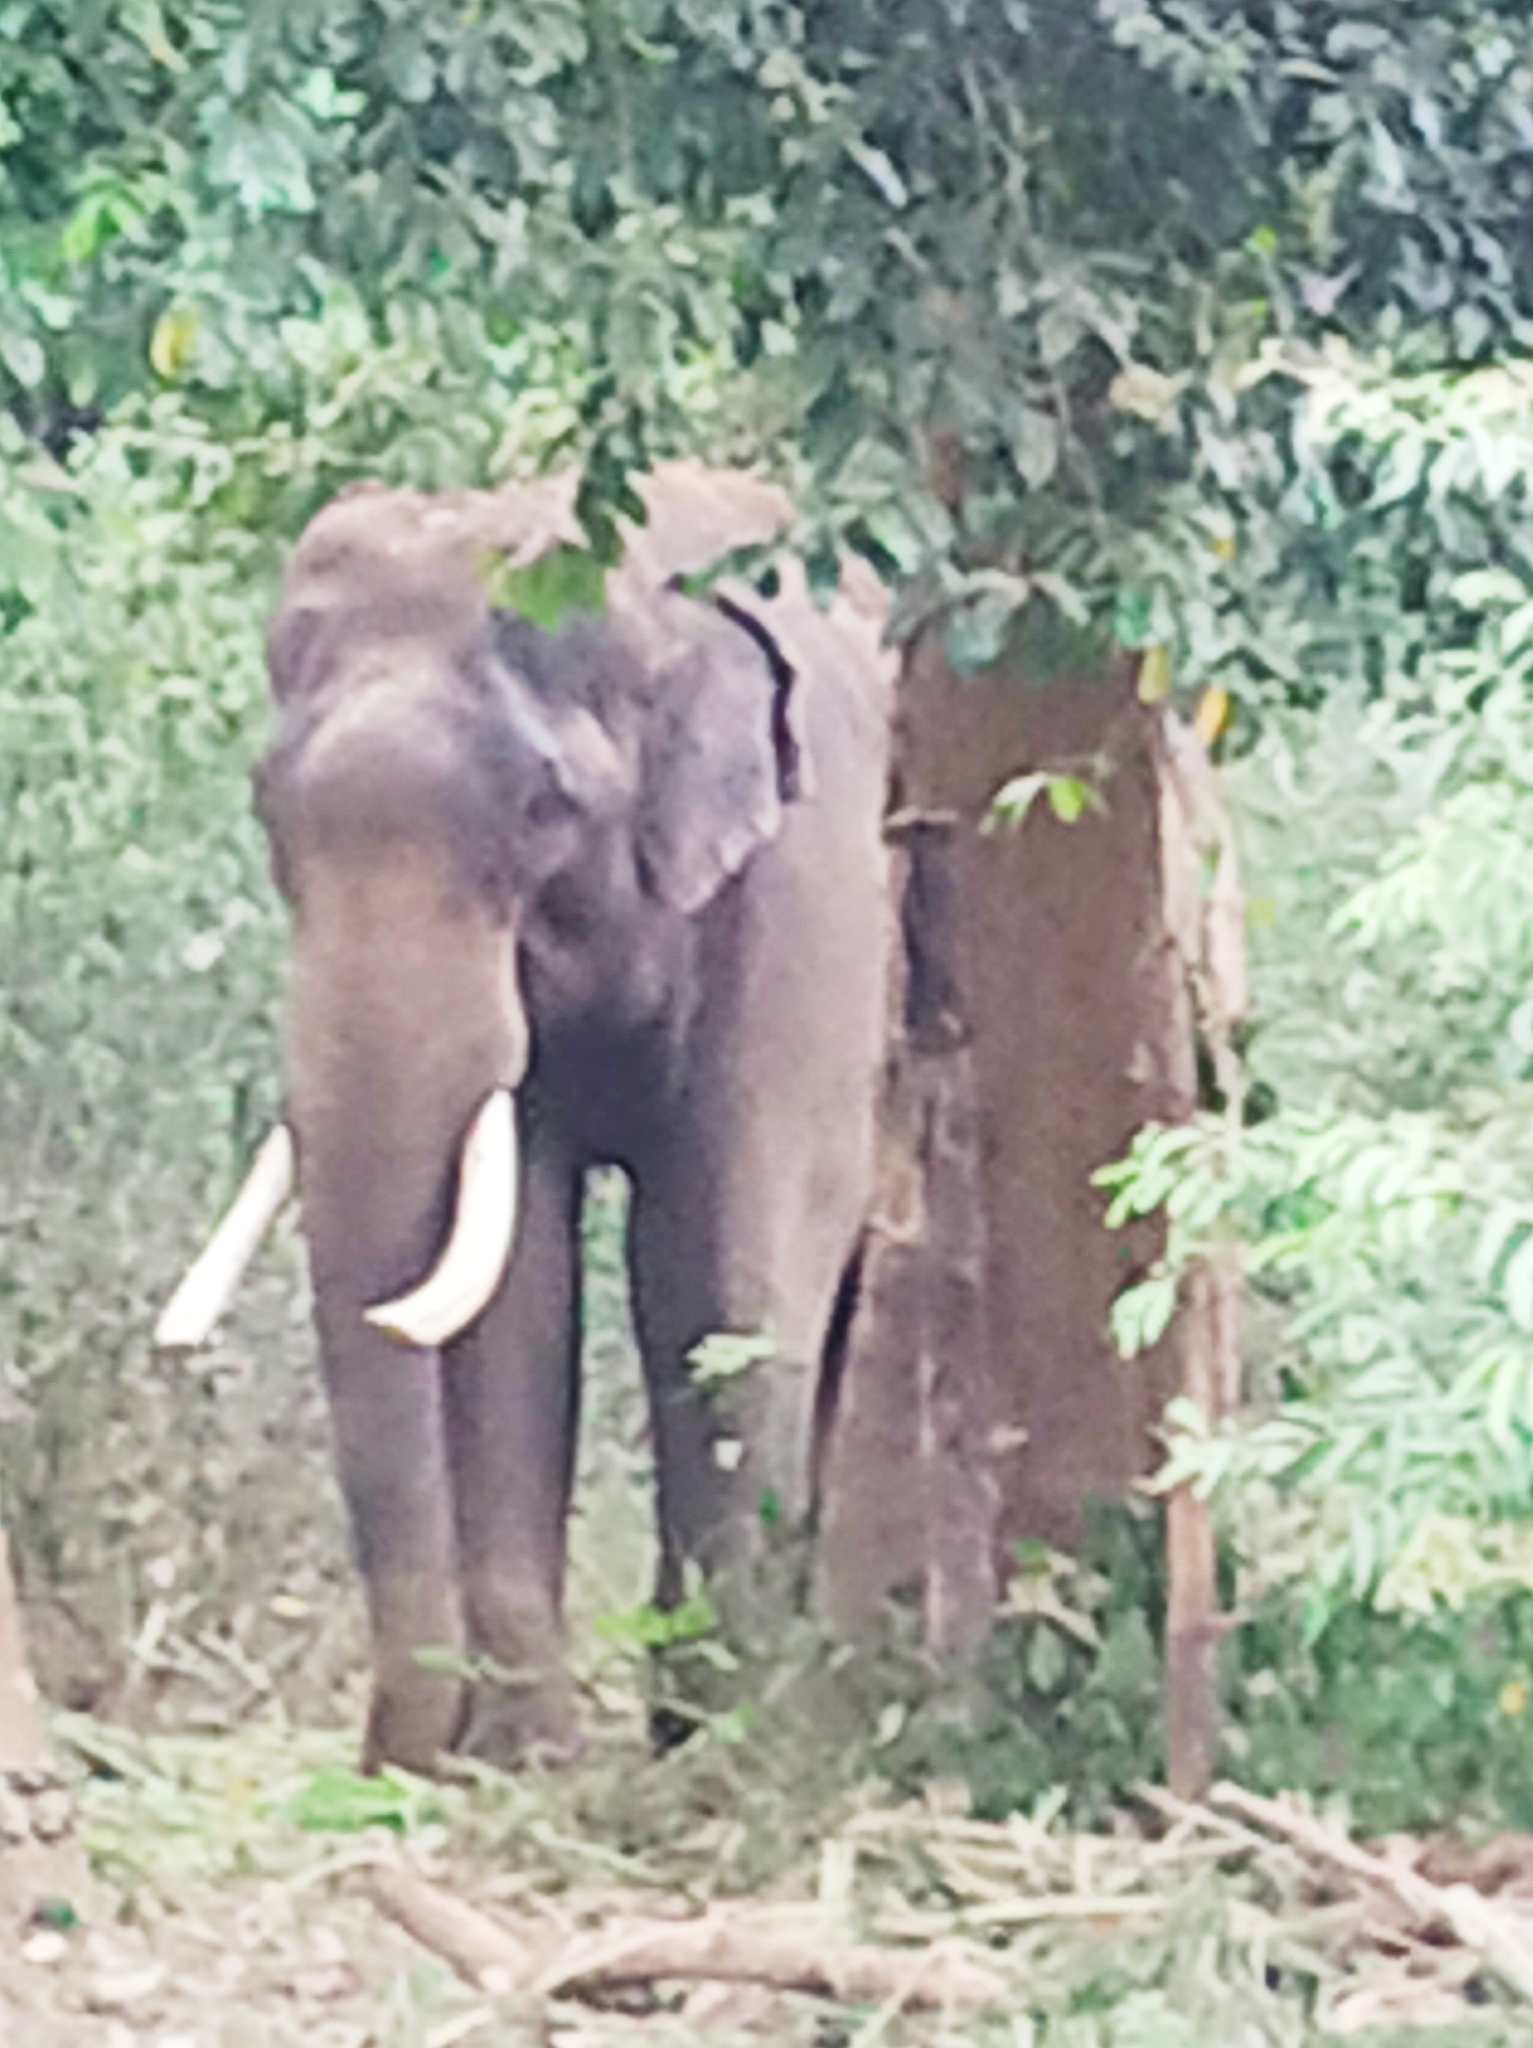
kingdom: Animalia
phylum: Chordata
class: Mammalia
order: Proboscidea
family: Elephantidae
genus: Elephas
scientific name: Elephas maximus
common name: Asian elephant
